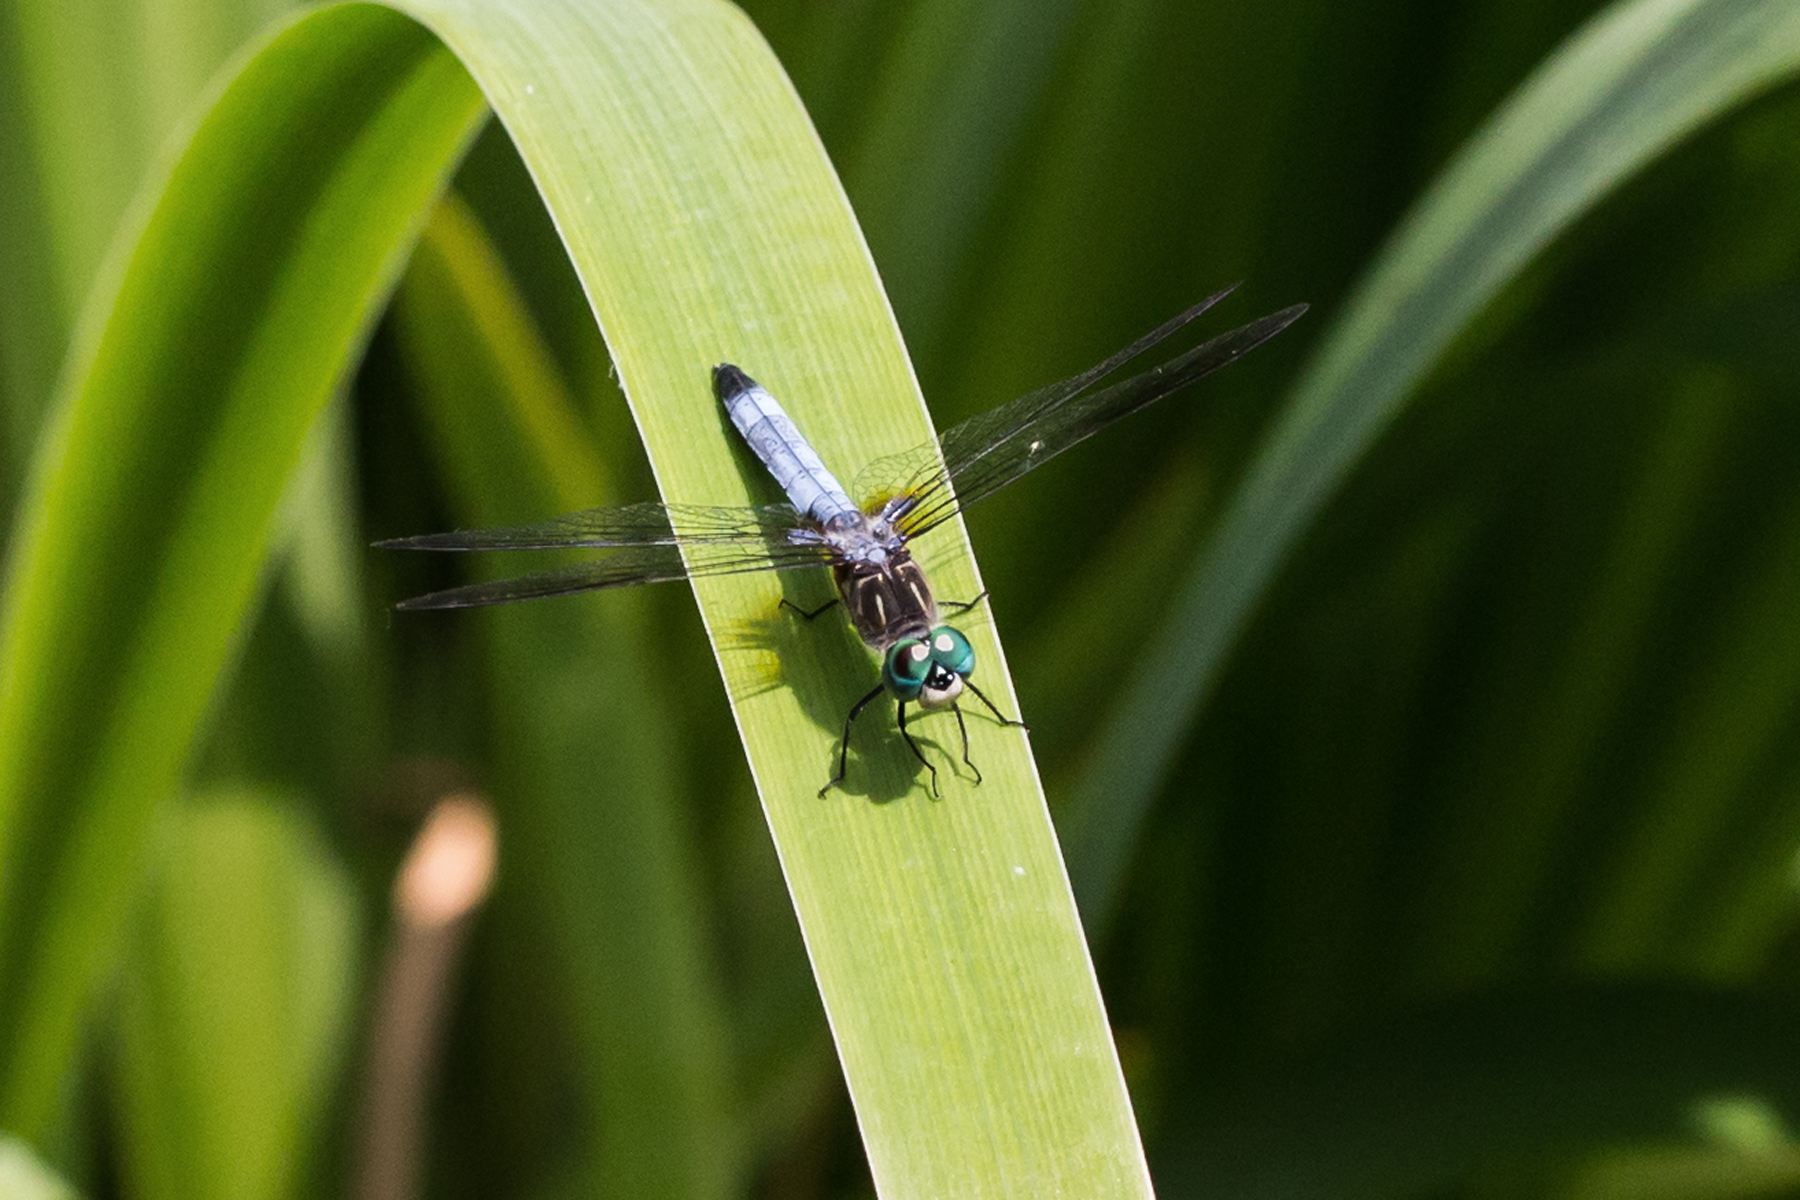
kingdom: Animalia
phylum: Arthropoda
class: Insecta
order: Odonata
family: Libellulidae
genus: Pachydiplax
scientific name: Pachydiplax longipennis
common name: Blue dasher
